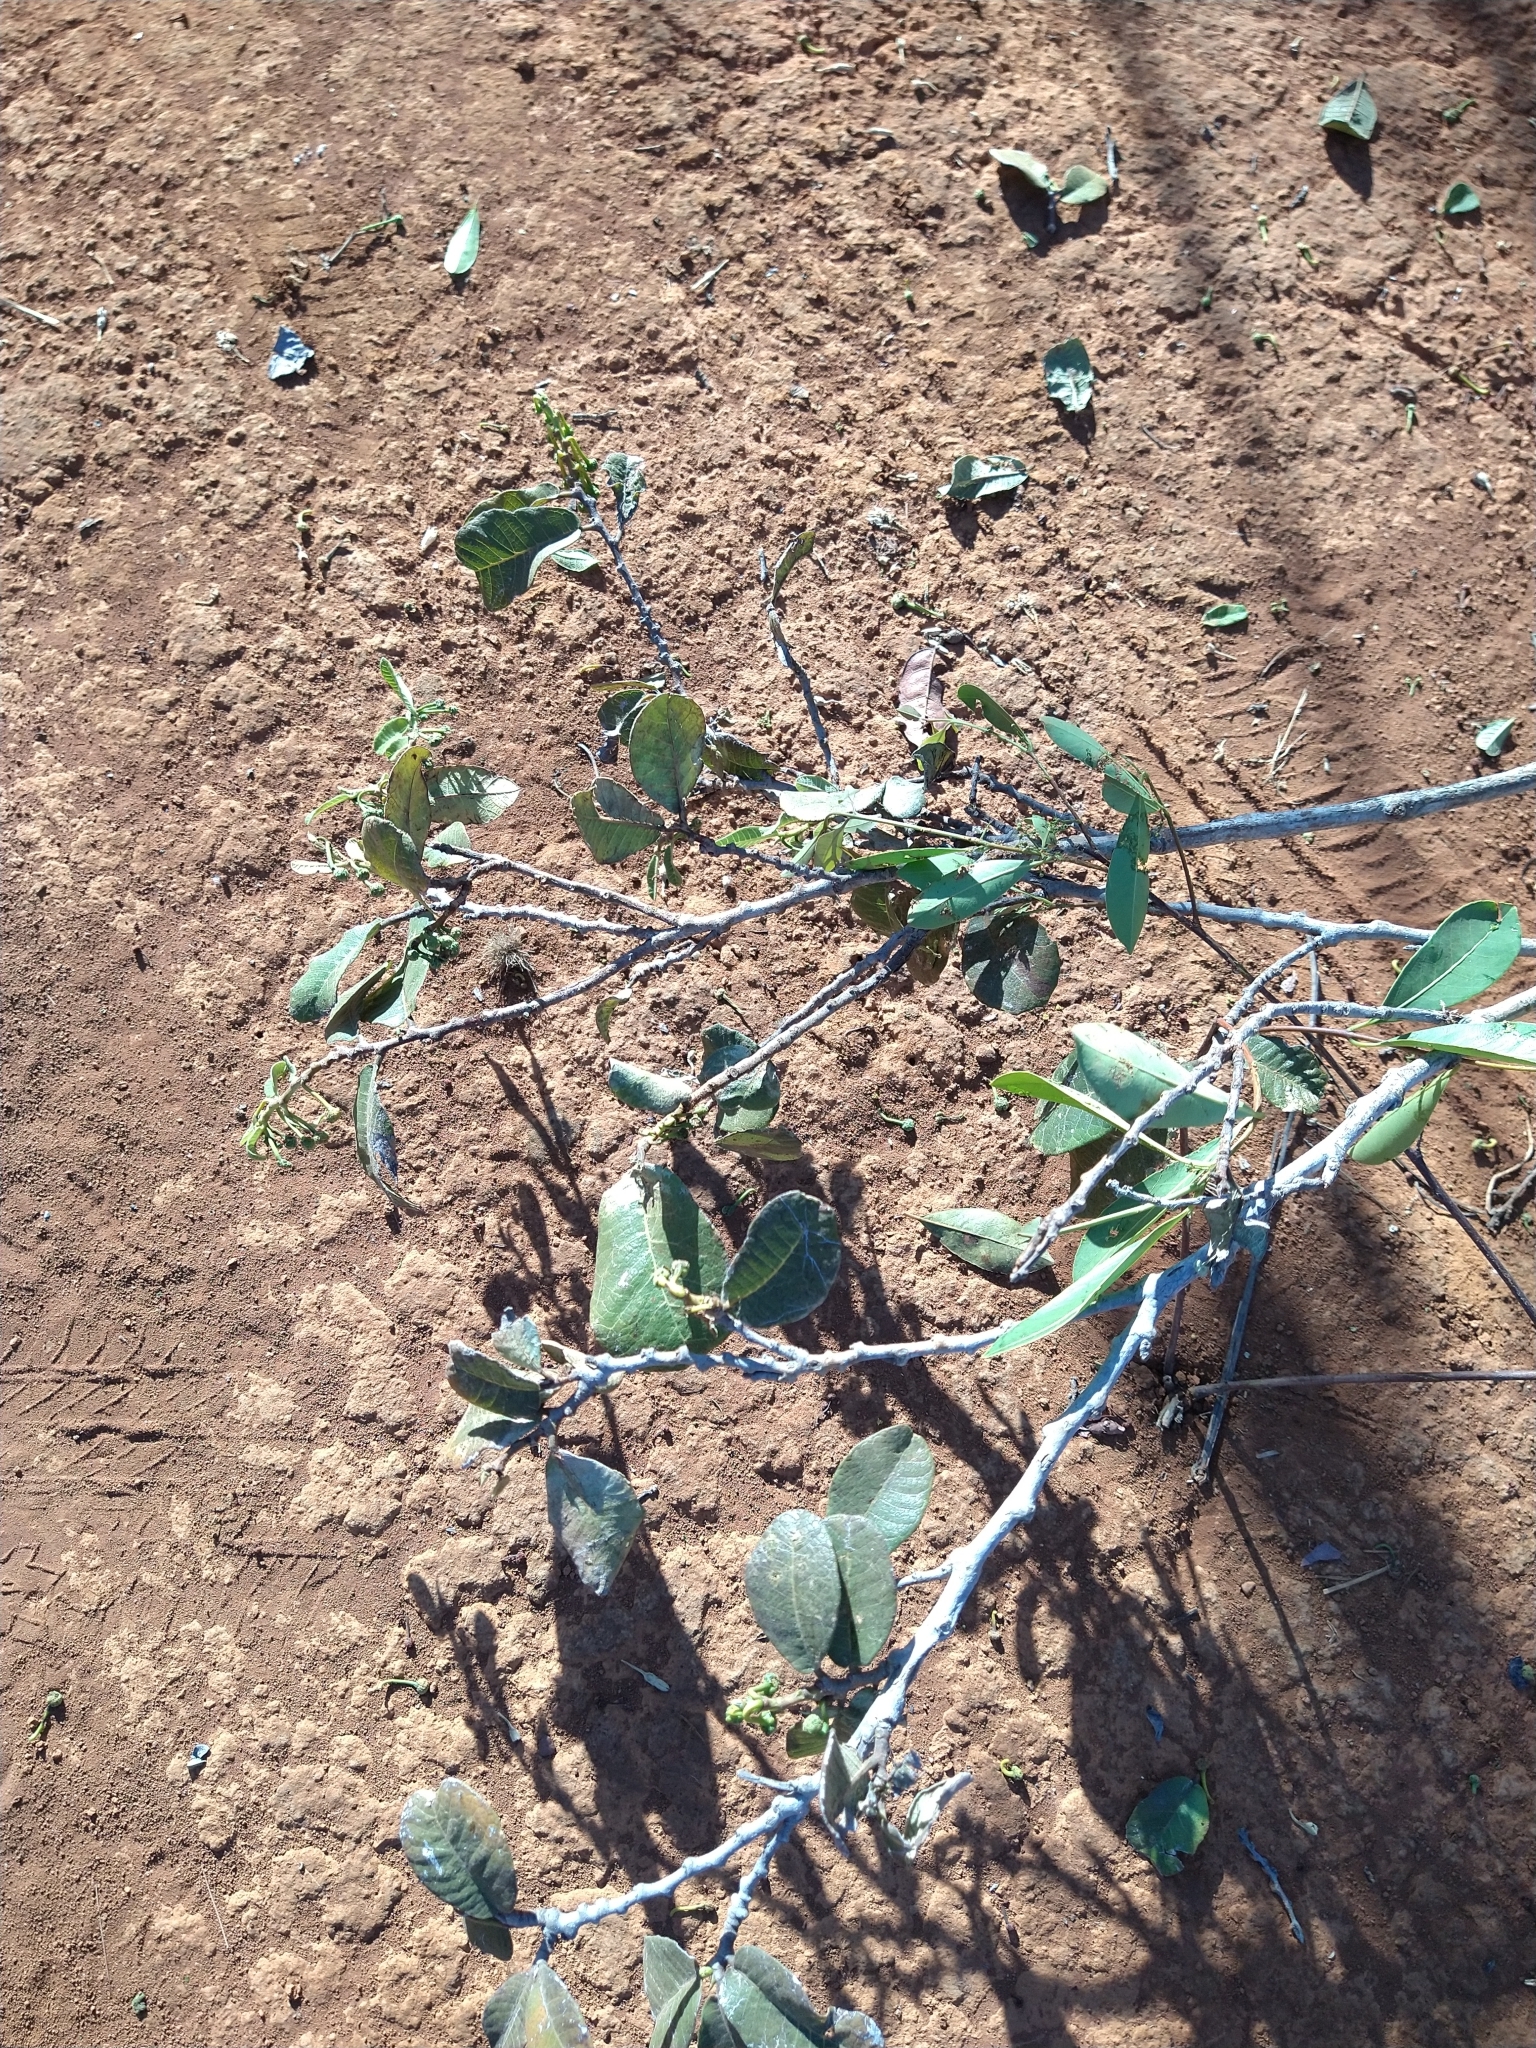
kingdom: Plantae
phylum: Tracheophyta
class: Magnoliopsida
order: Rosales
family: Moraceae
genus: Brosimum
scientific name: Brosimum gaudichaudii
